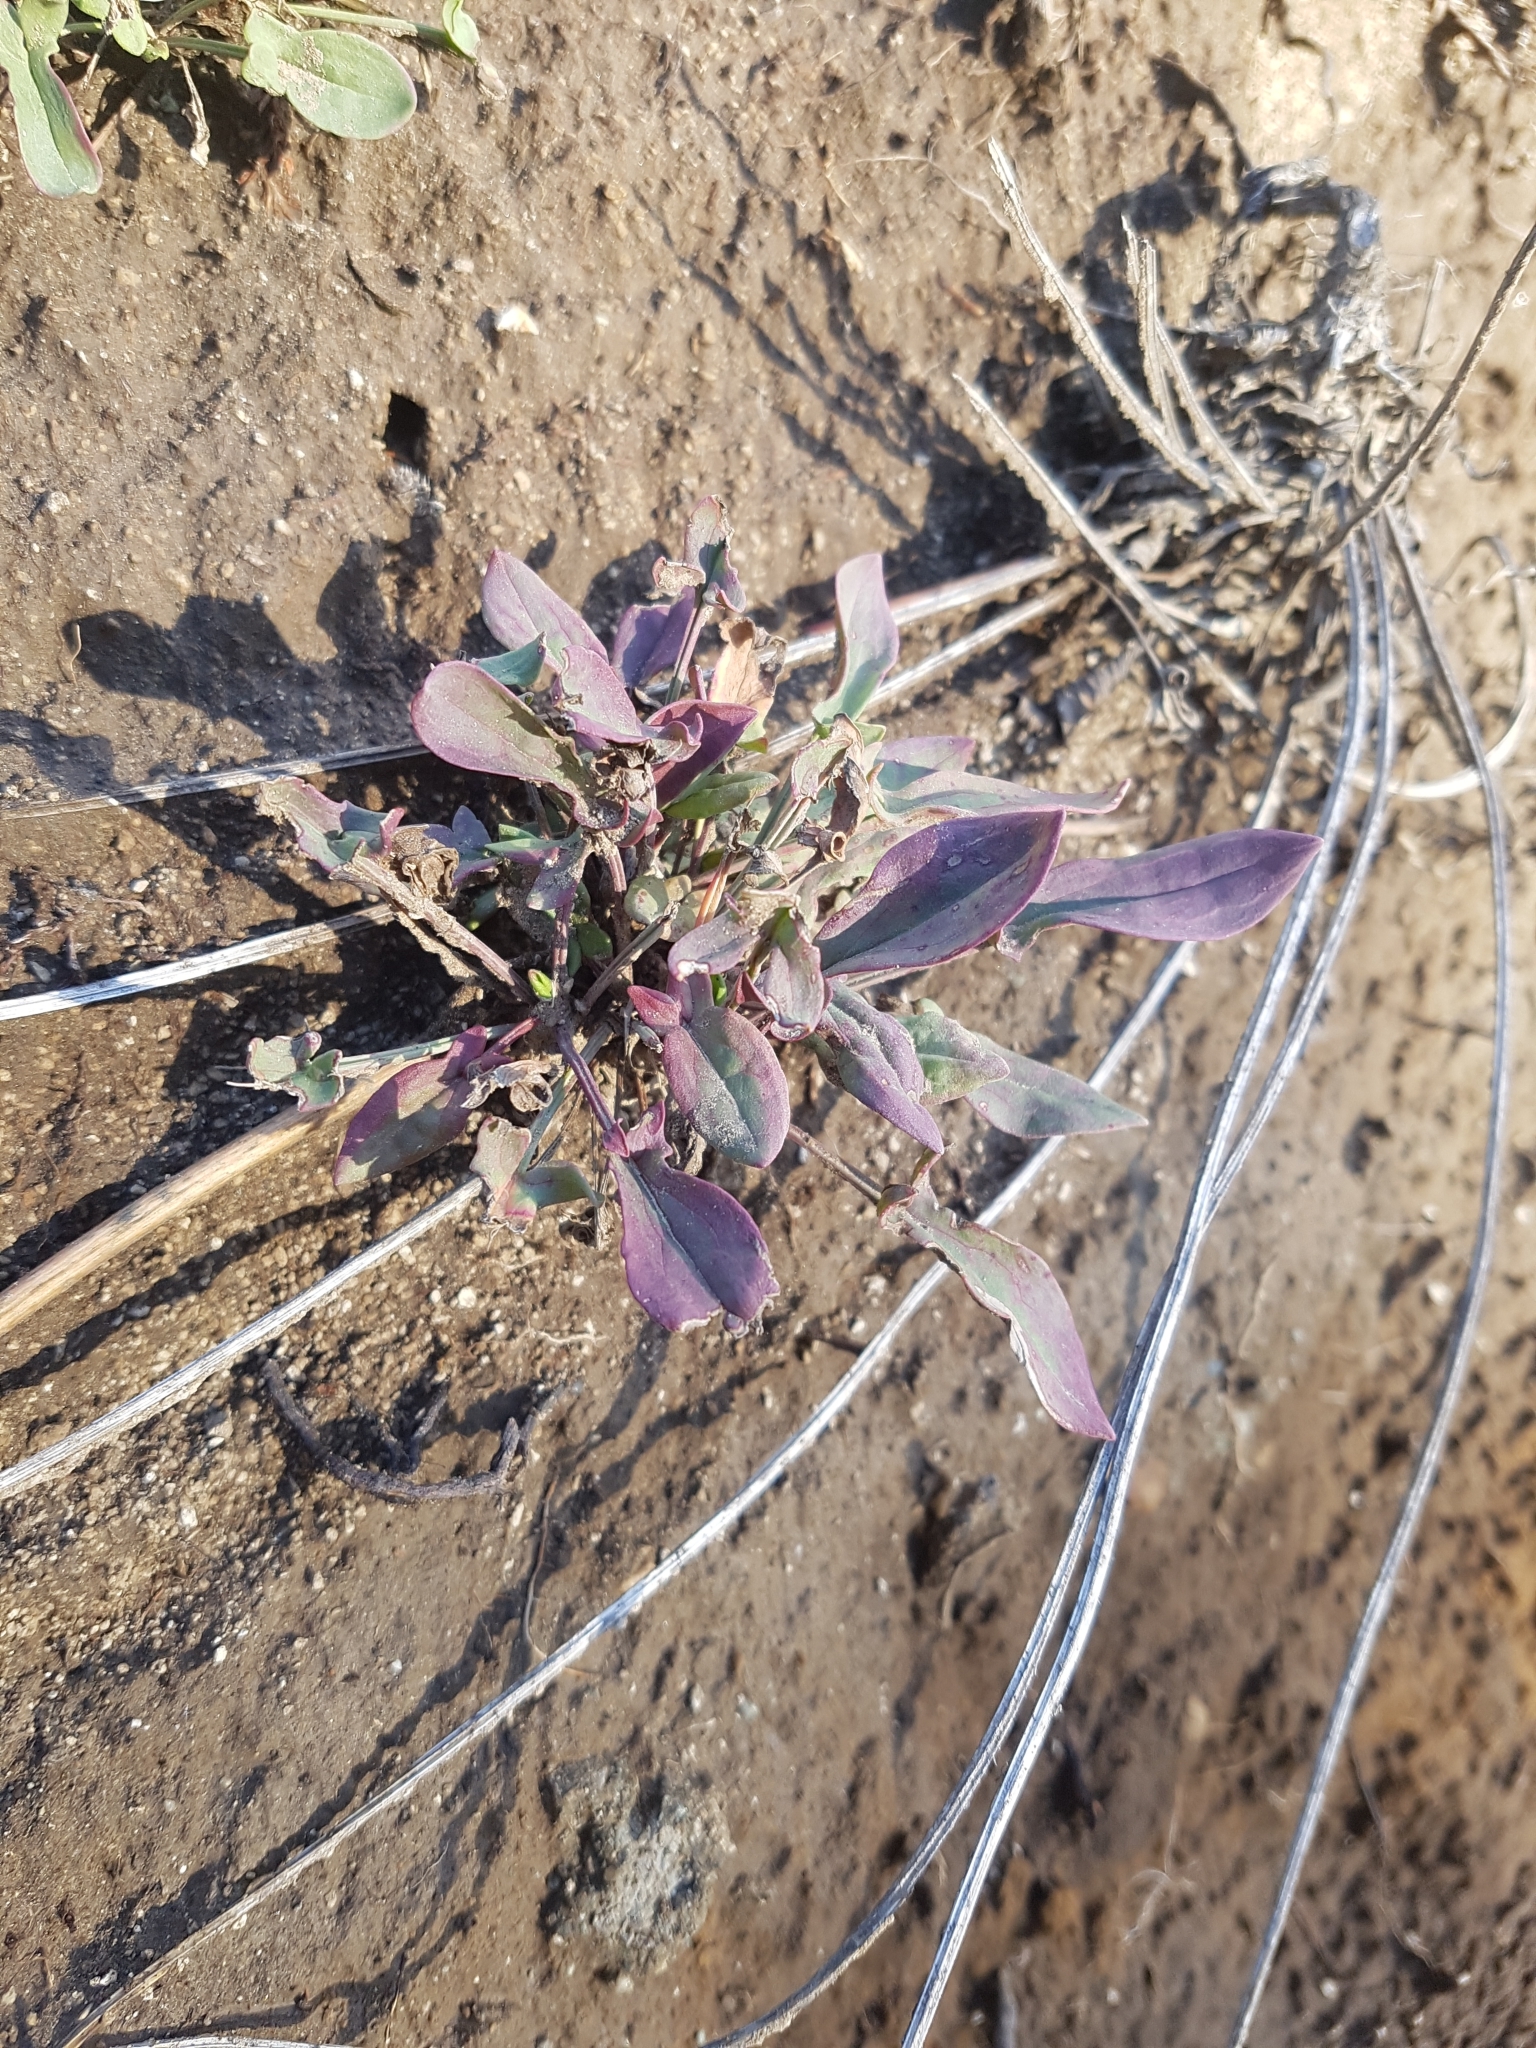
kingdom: Plantae
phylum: Tracheophyta
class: Magnoliopsida
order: Caryophyllales
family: Polygonaceae
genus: Rumex
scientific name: Rumex acetosella
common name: Common sheep sorrel
